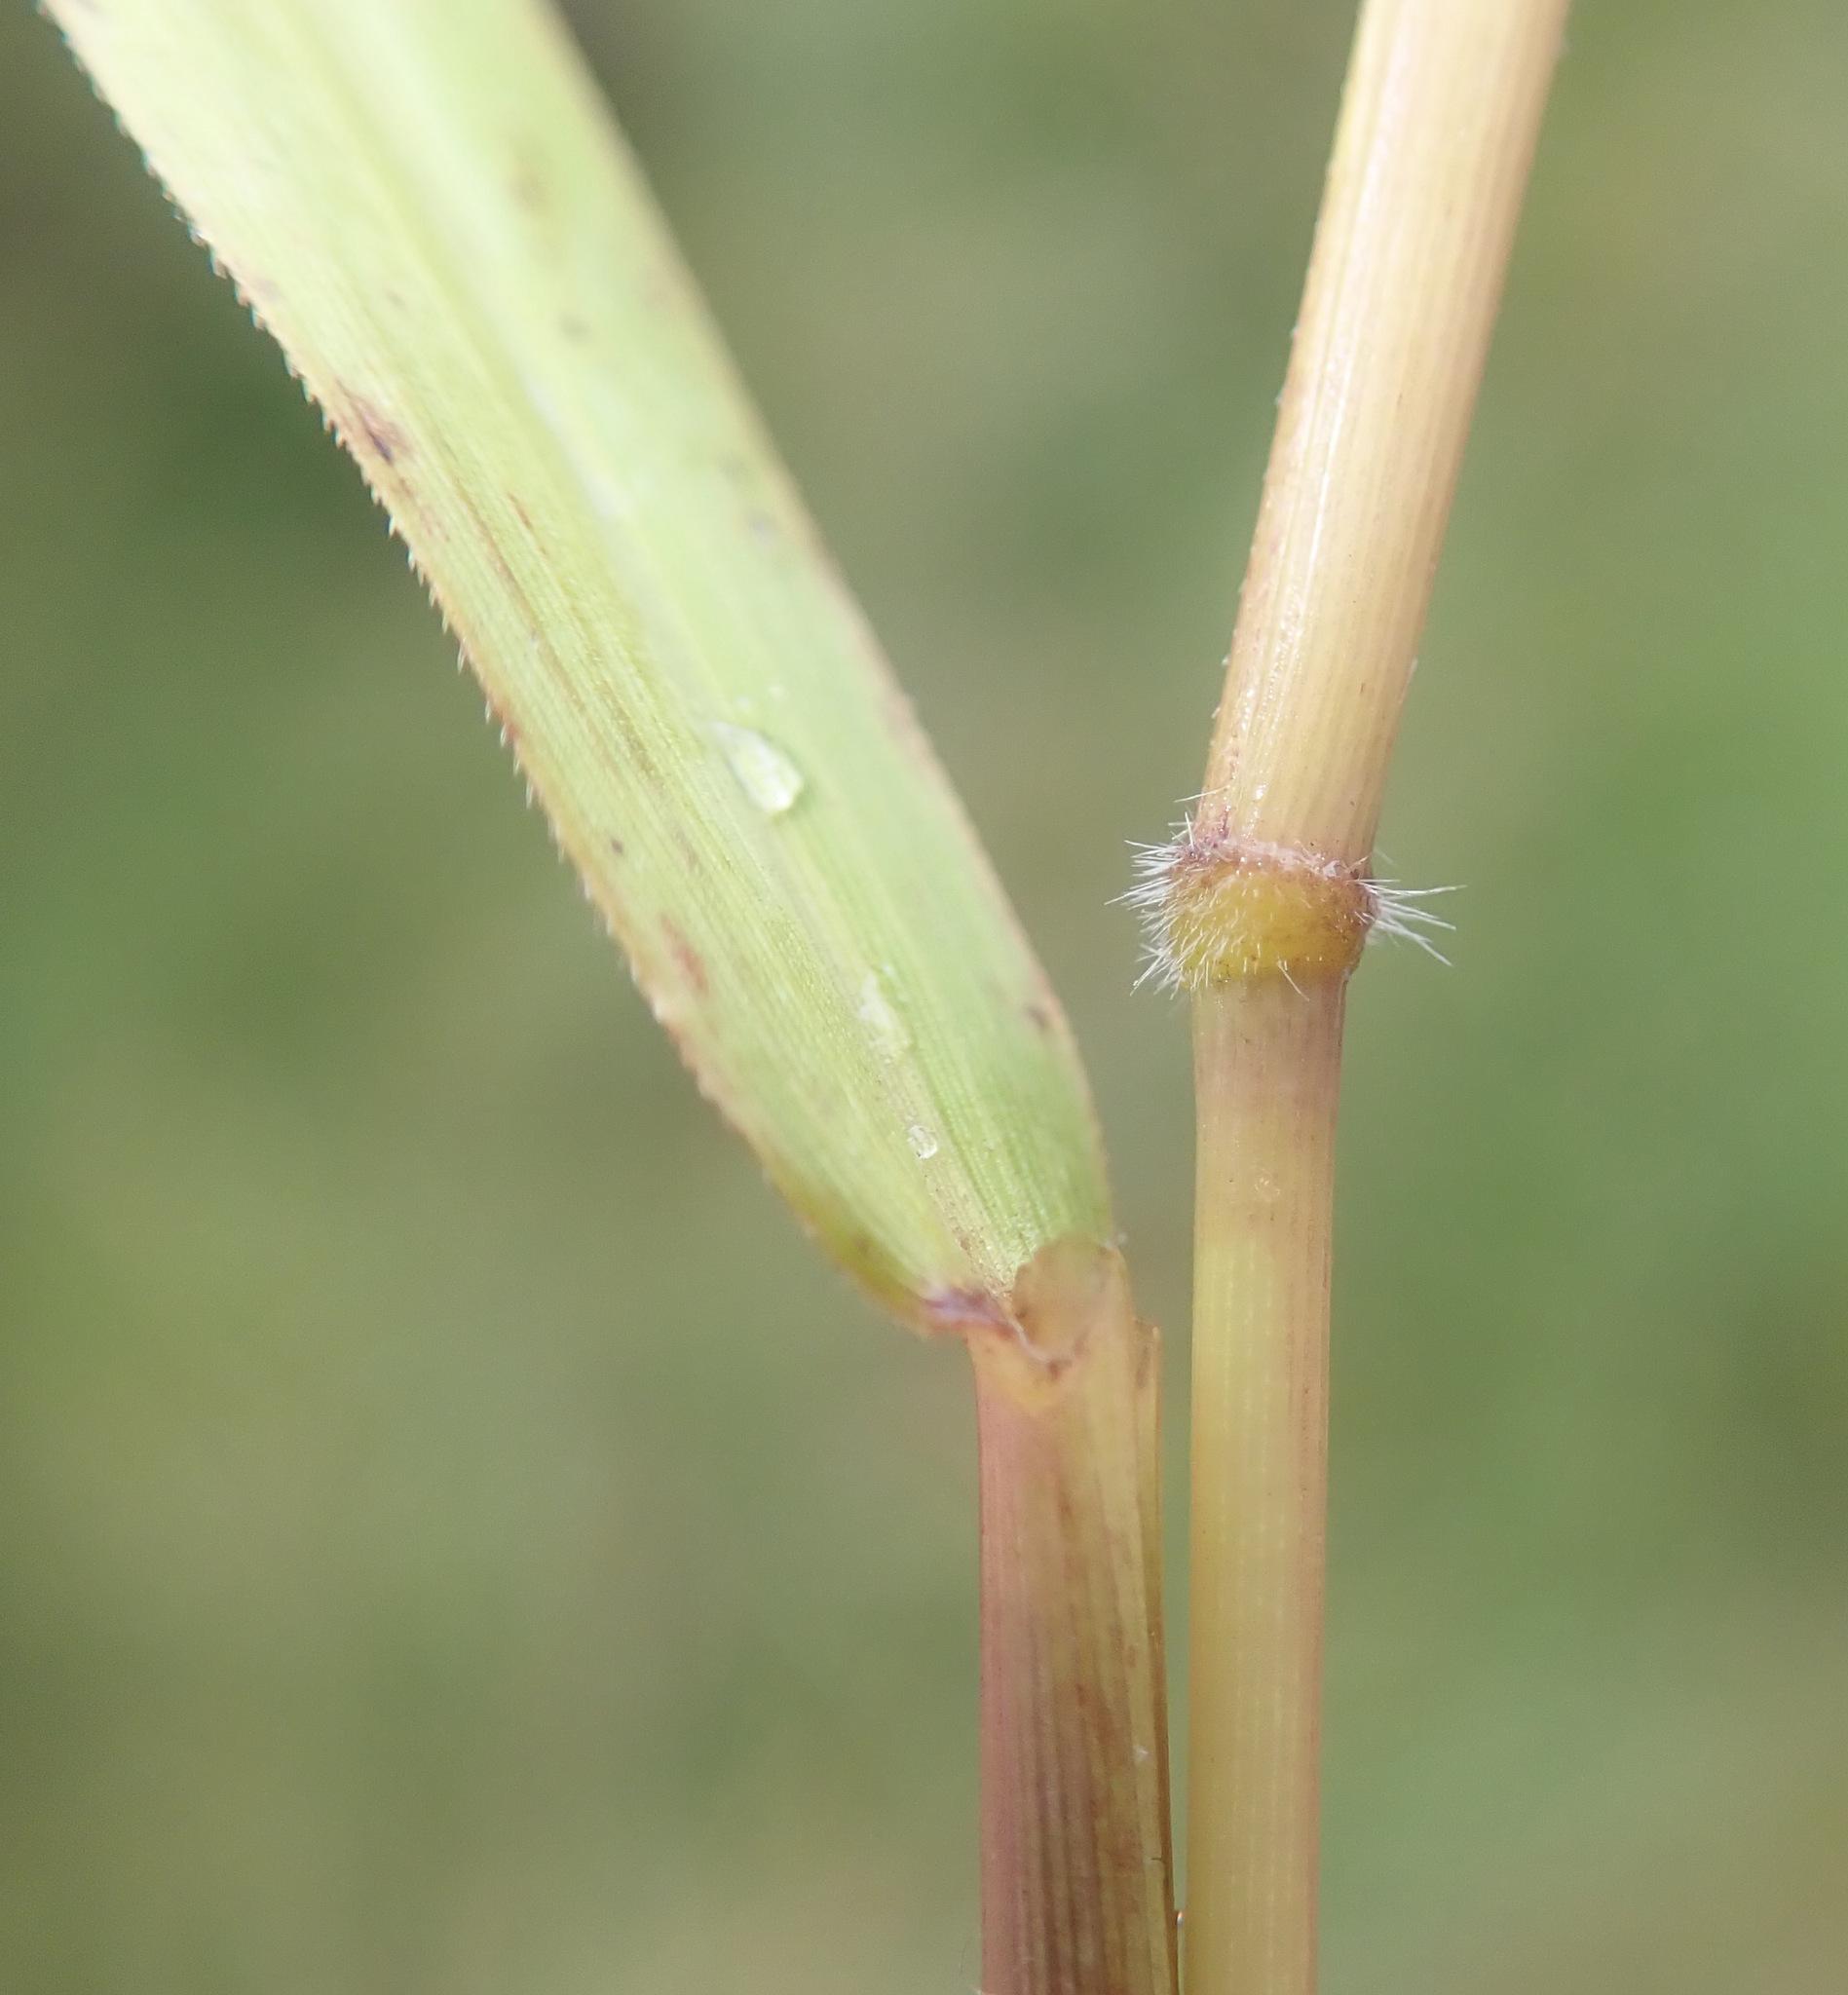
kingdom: Plantae
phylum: Tracheophyta
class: Liliopsida
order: Poales
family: Poaceae
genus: Leersia
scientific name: Leersia oryzoides
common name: Cut-grass
